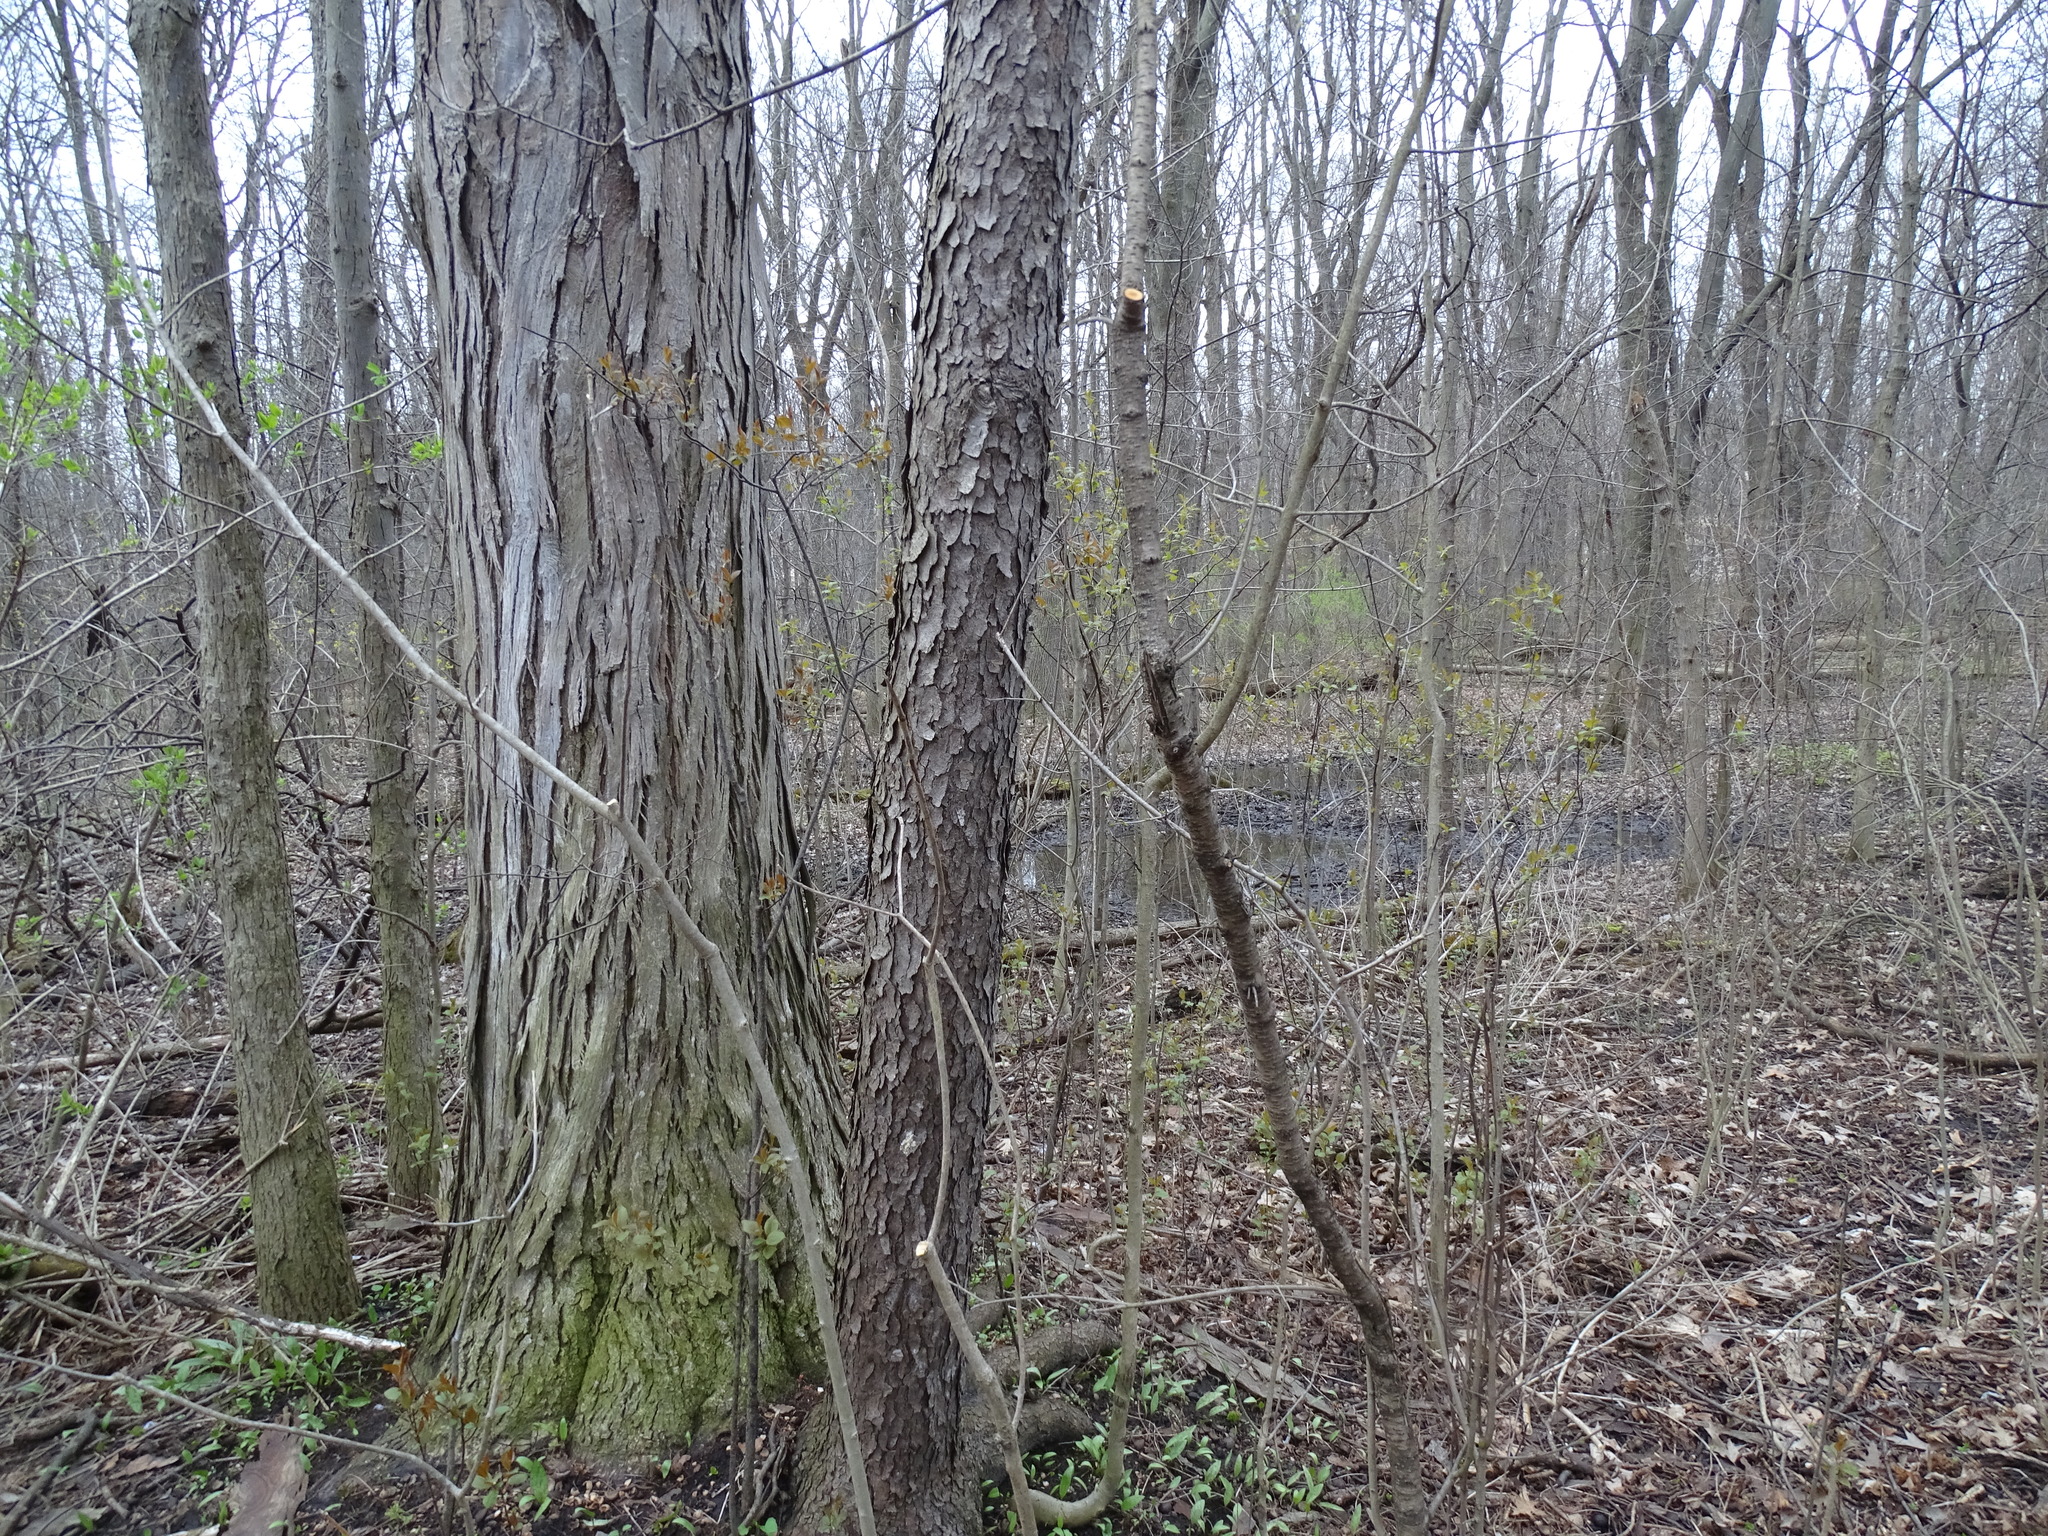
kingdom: Plantae
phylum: Tracheophyta
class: Magnoliopsida
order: Rosales
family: Rosaceae
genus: Prunus
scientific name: Prunus serotina
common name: Black cherry
